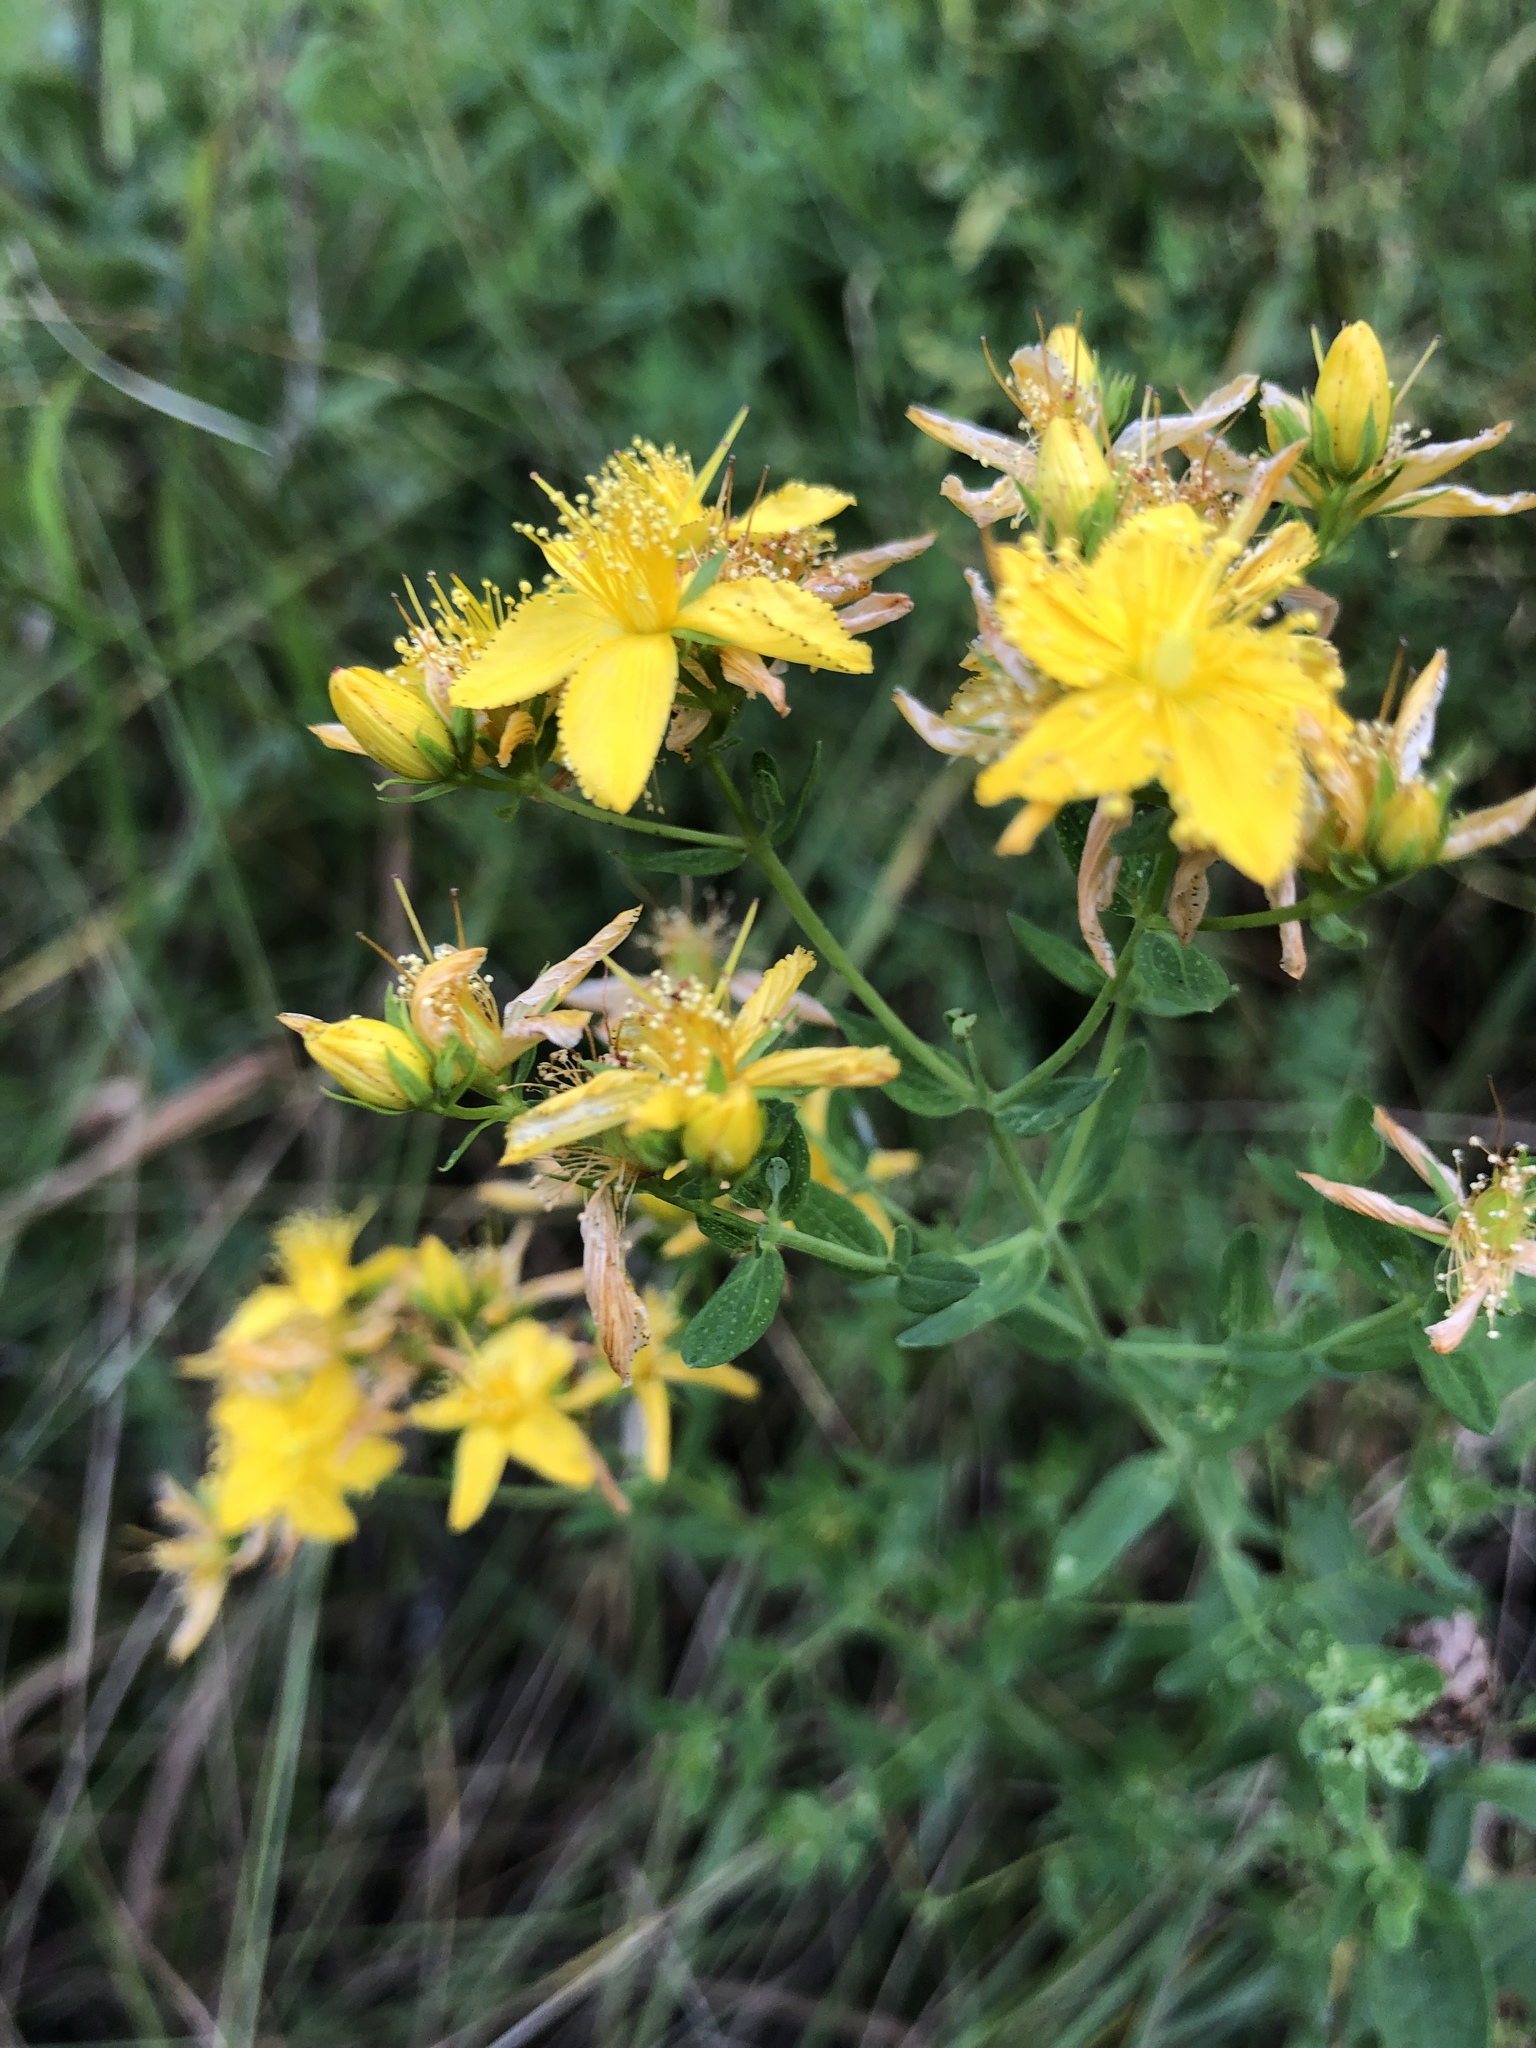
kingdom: Plantae
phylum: Tracheophyta
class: Magnoliopsida
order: Malpighiales
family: Hypericaceae
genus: Hypericum
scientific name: Hypericum perforatum
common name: Common st. johnswort
